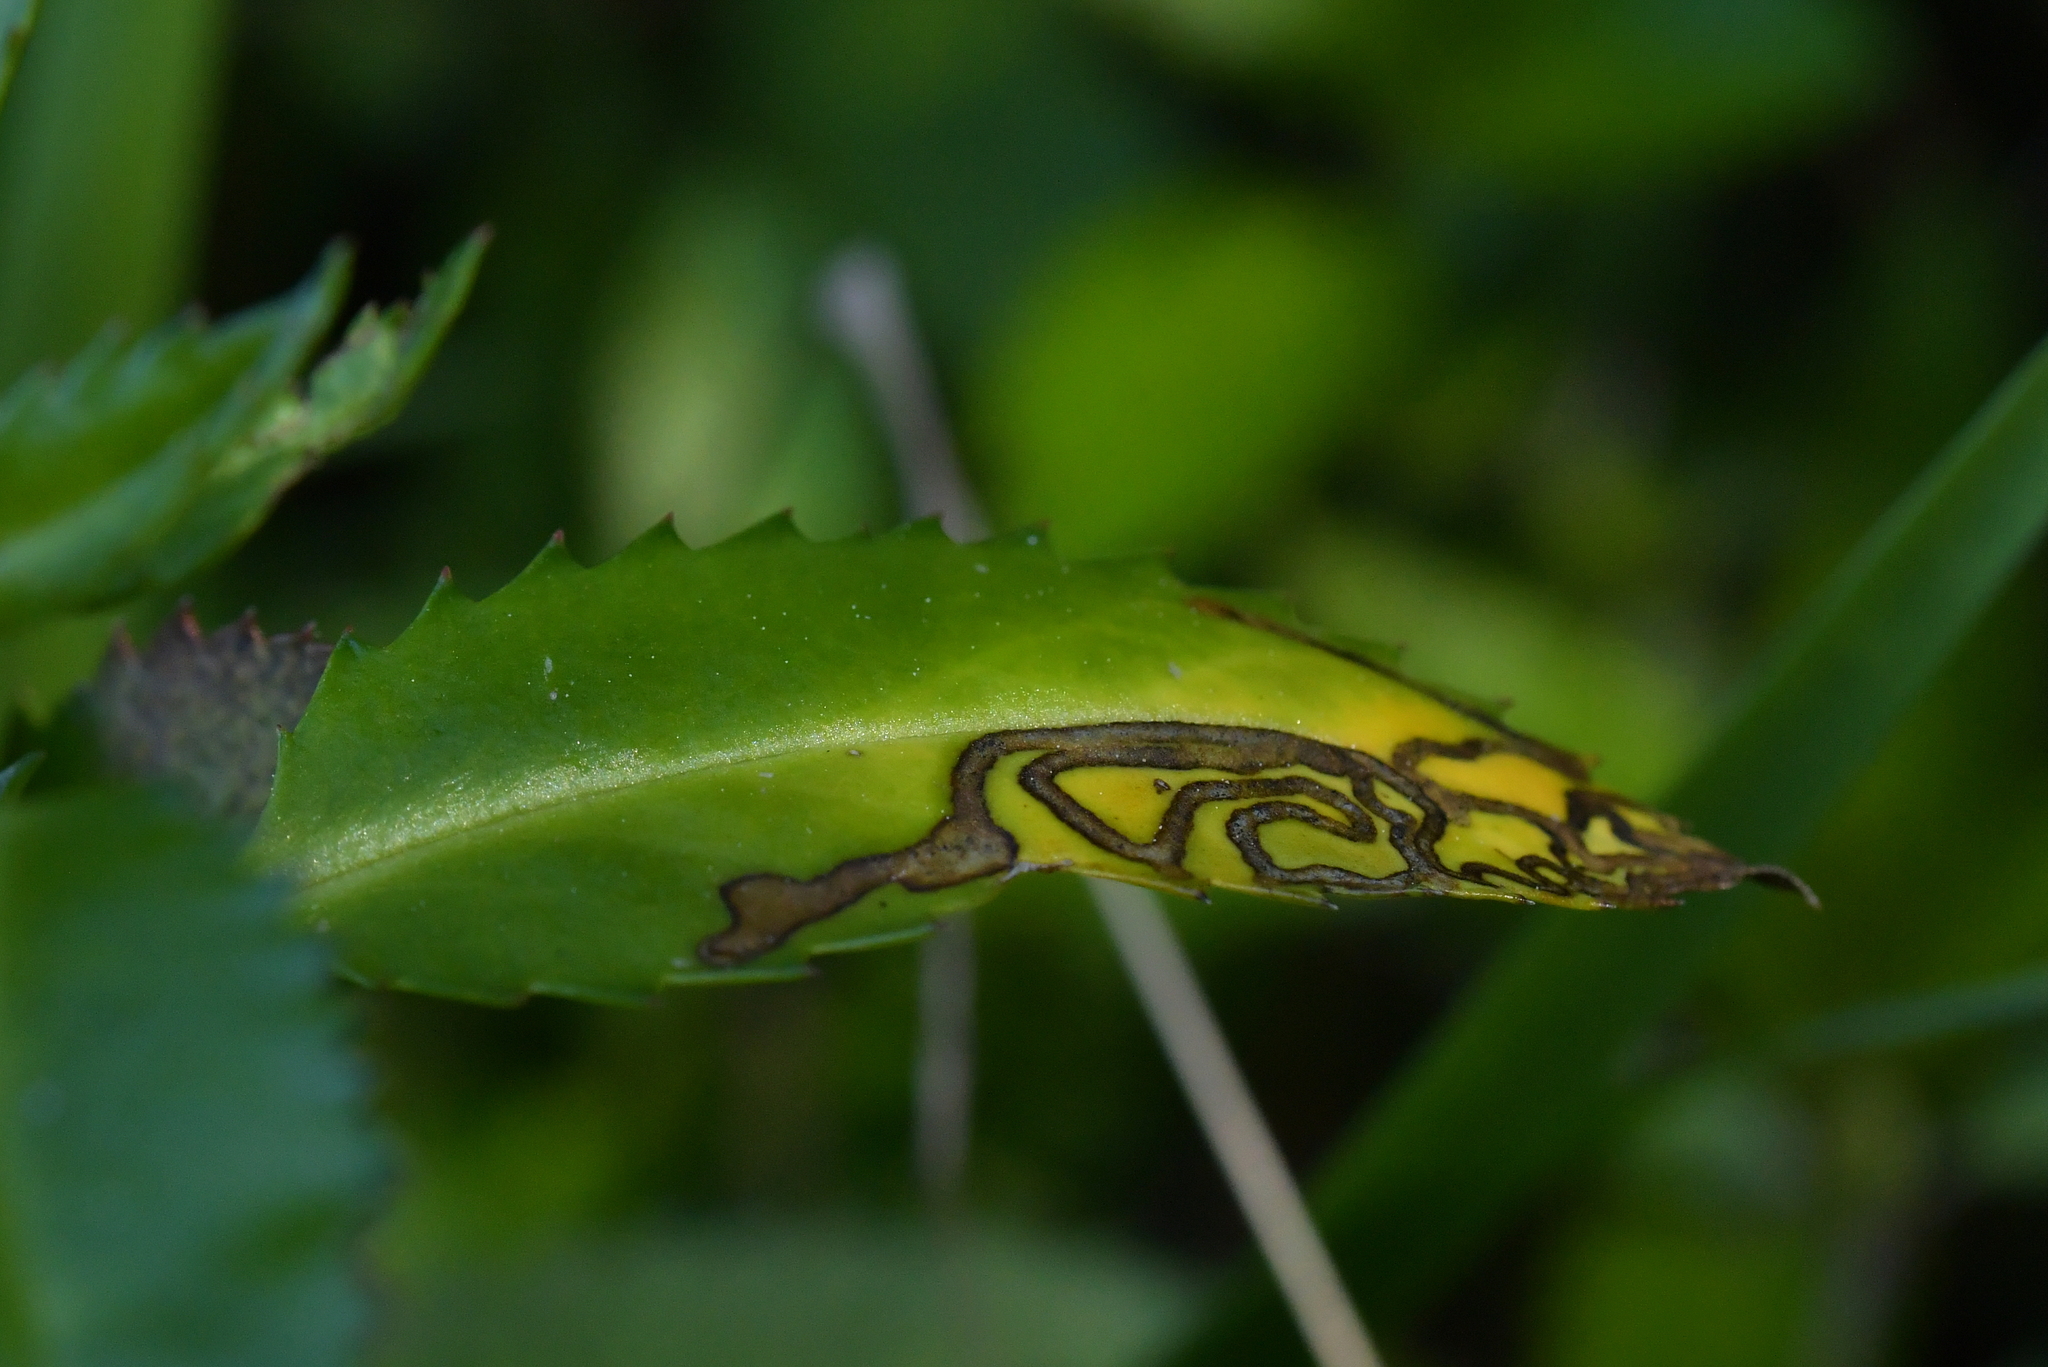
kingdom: Animalia
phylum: Arthropoda
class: Insecta
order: Lepidoptera
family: Momphidae
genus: Zapyrastra
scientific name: Zapyrastra
